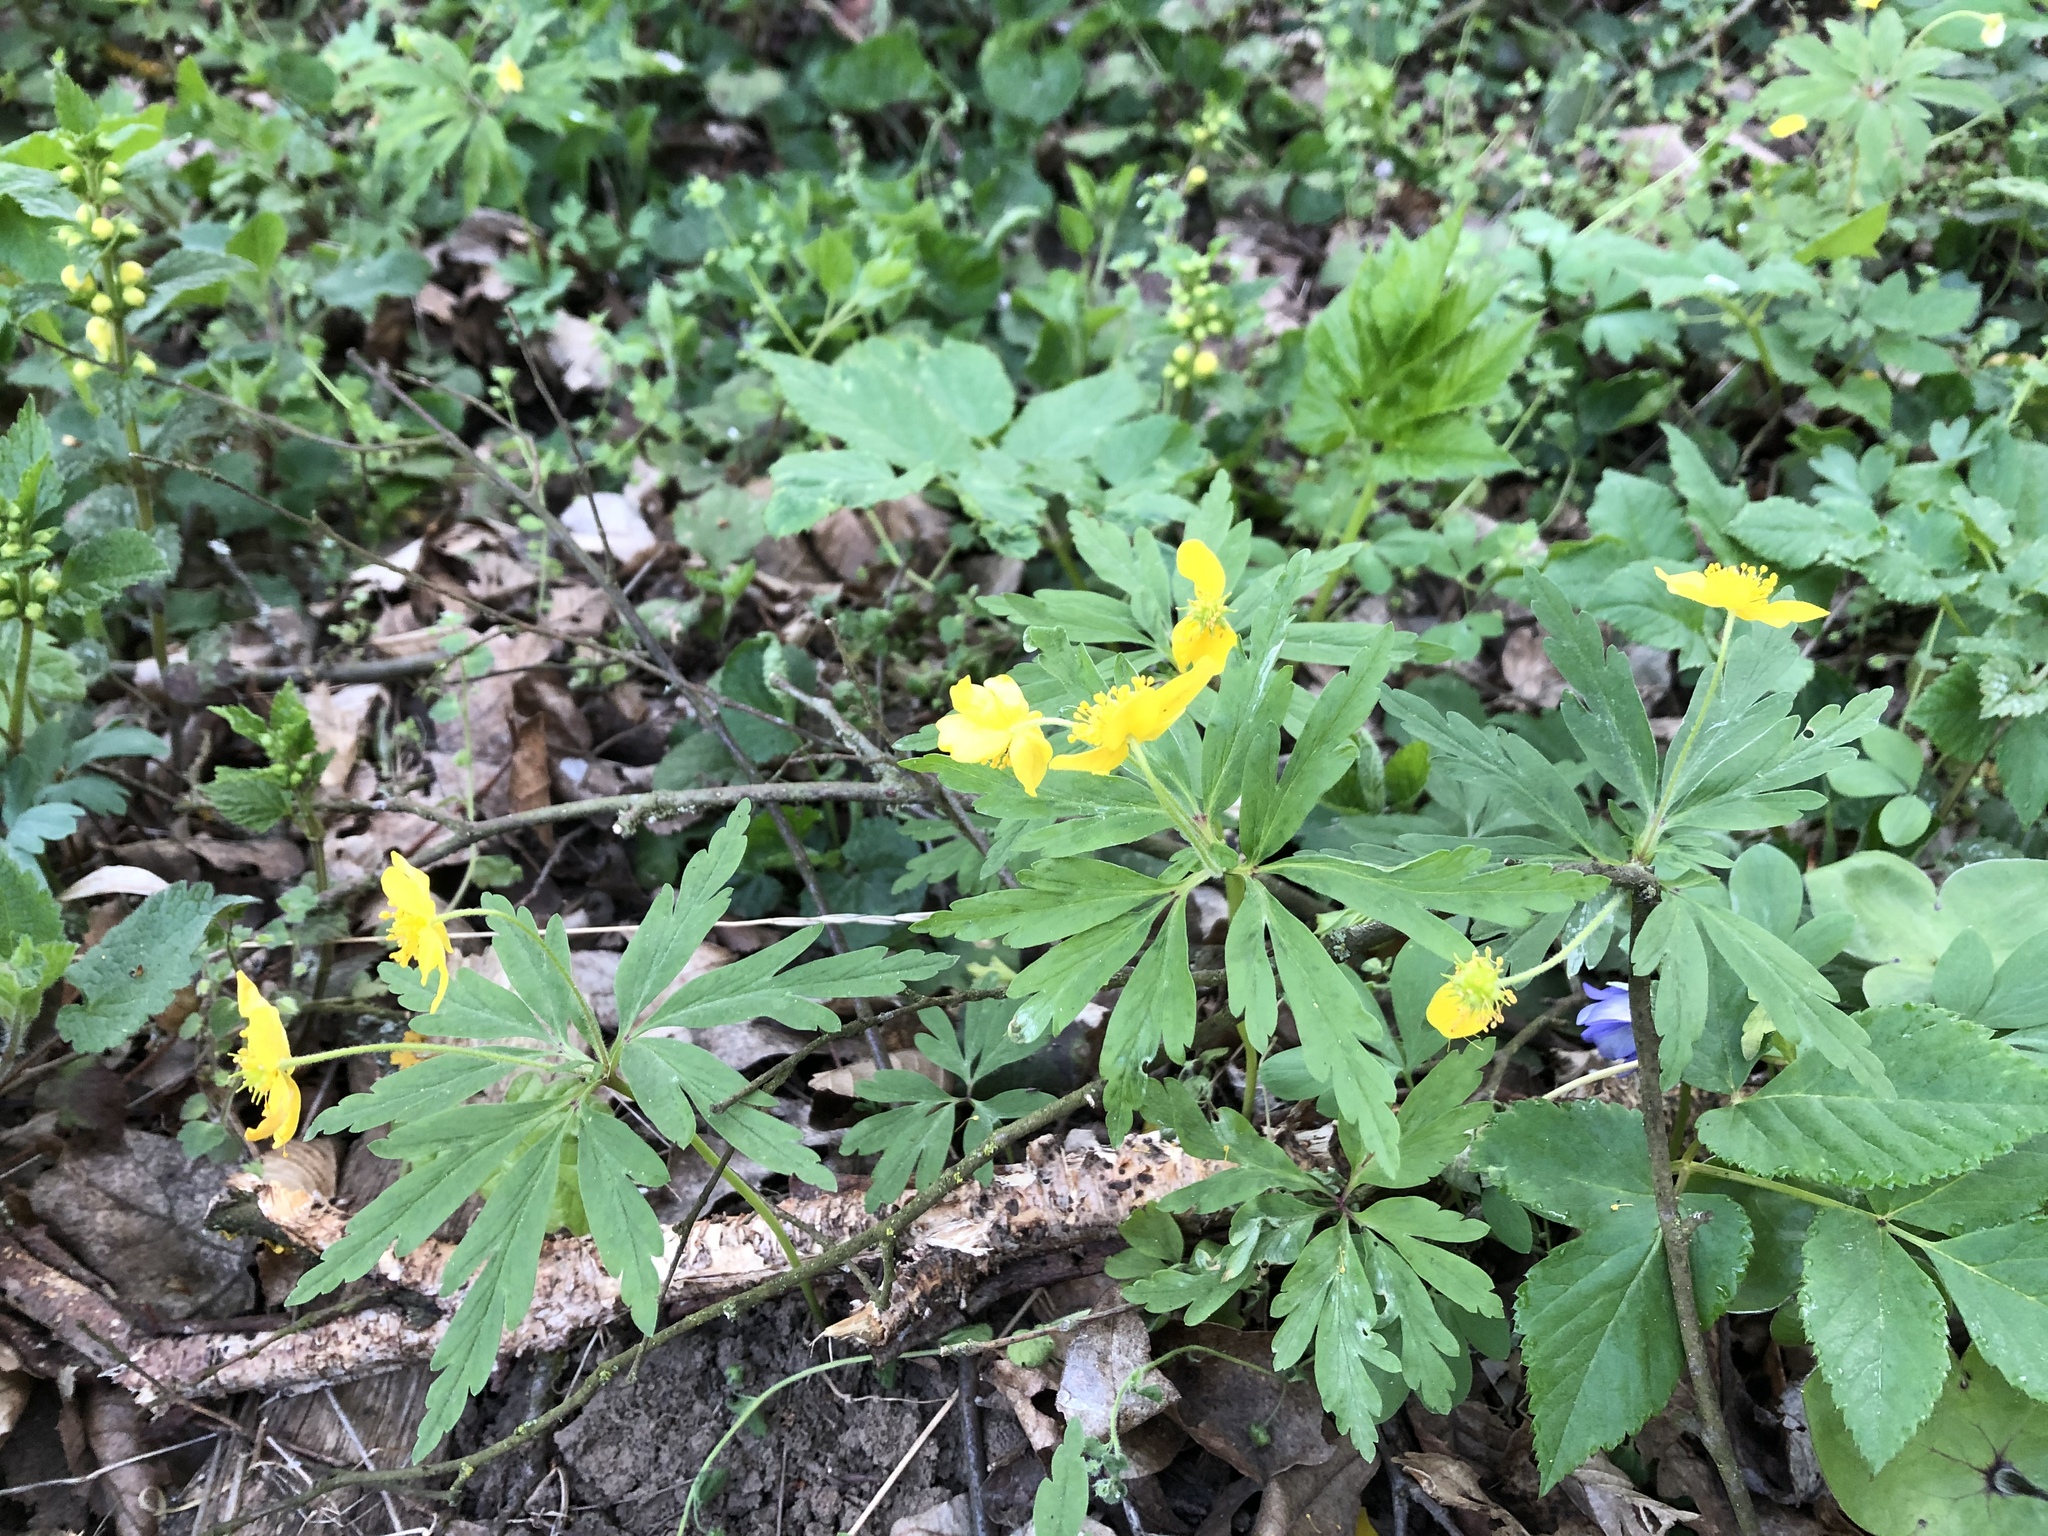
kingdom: Plantae
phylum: Tracheophyta
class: Magnoliopsida
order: Ranunculales
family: Ranunculaceae
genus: Anemone
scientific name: Anemone ranunculoides
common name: Yellow anemone
